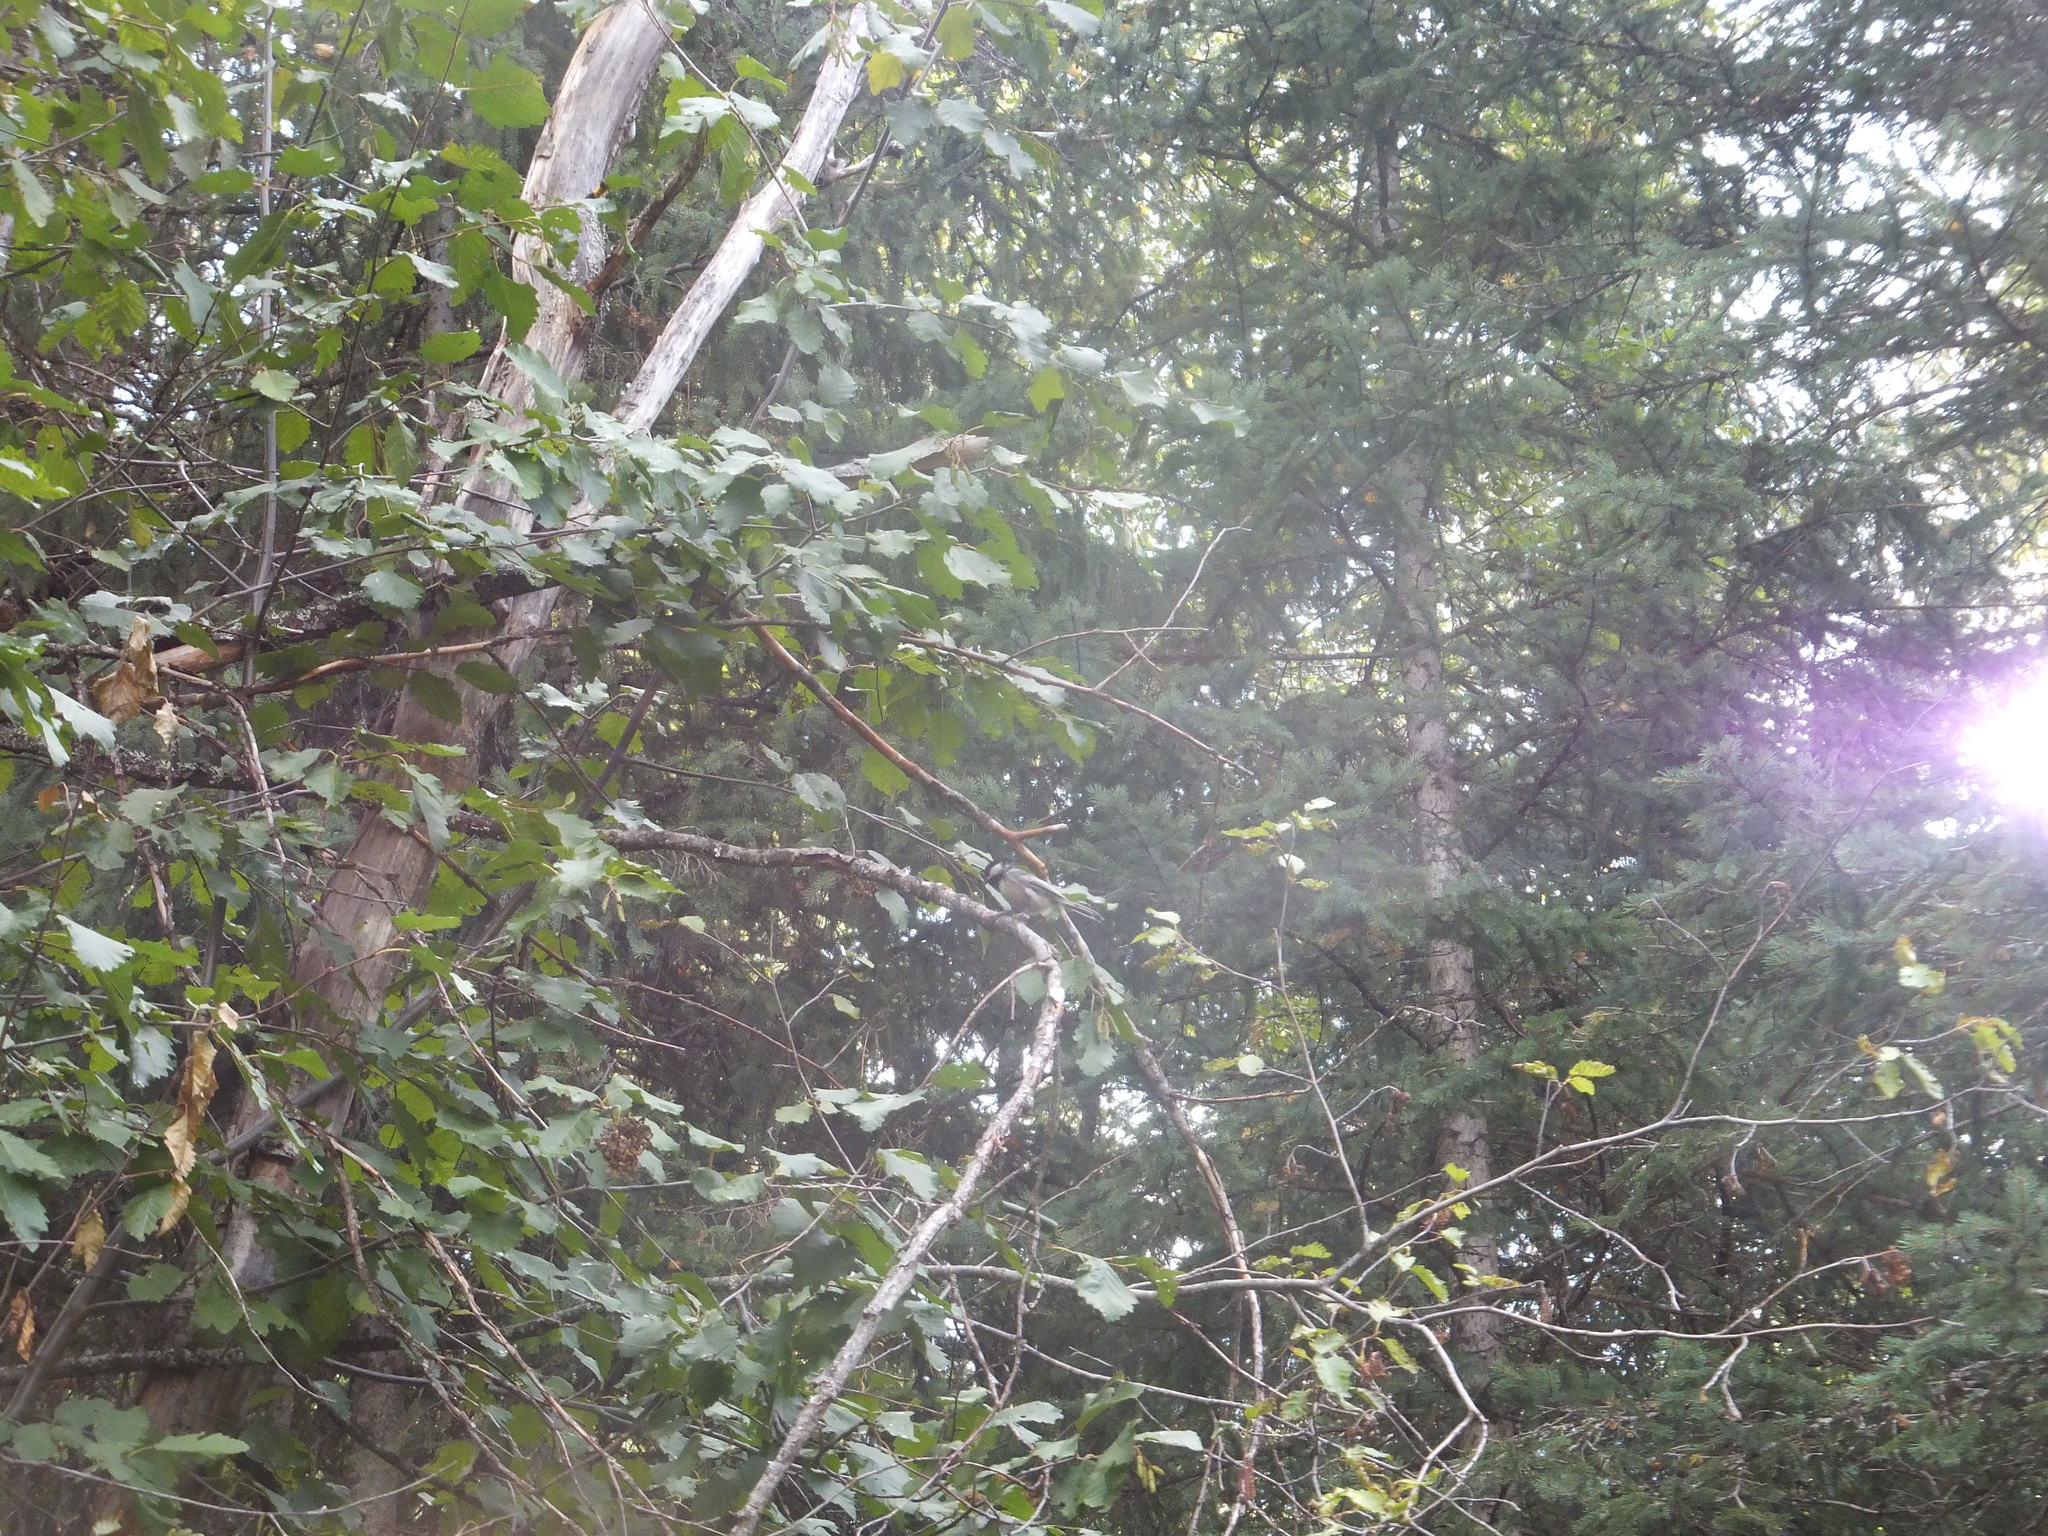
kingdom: Animalia
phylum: Chordata
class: Aves
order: Passeriformes
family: Paridae
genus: Poecile
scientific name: Poecile atricapillus
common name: Black-capped chickadee
